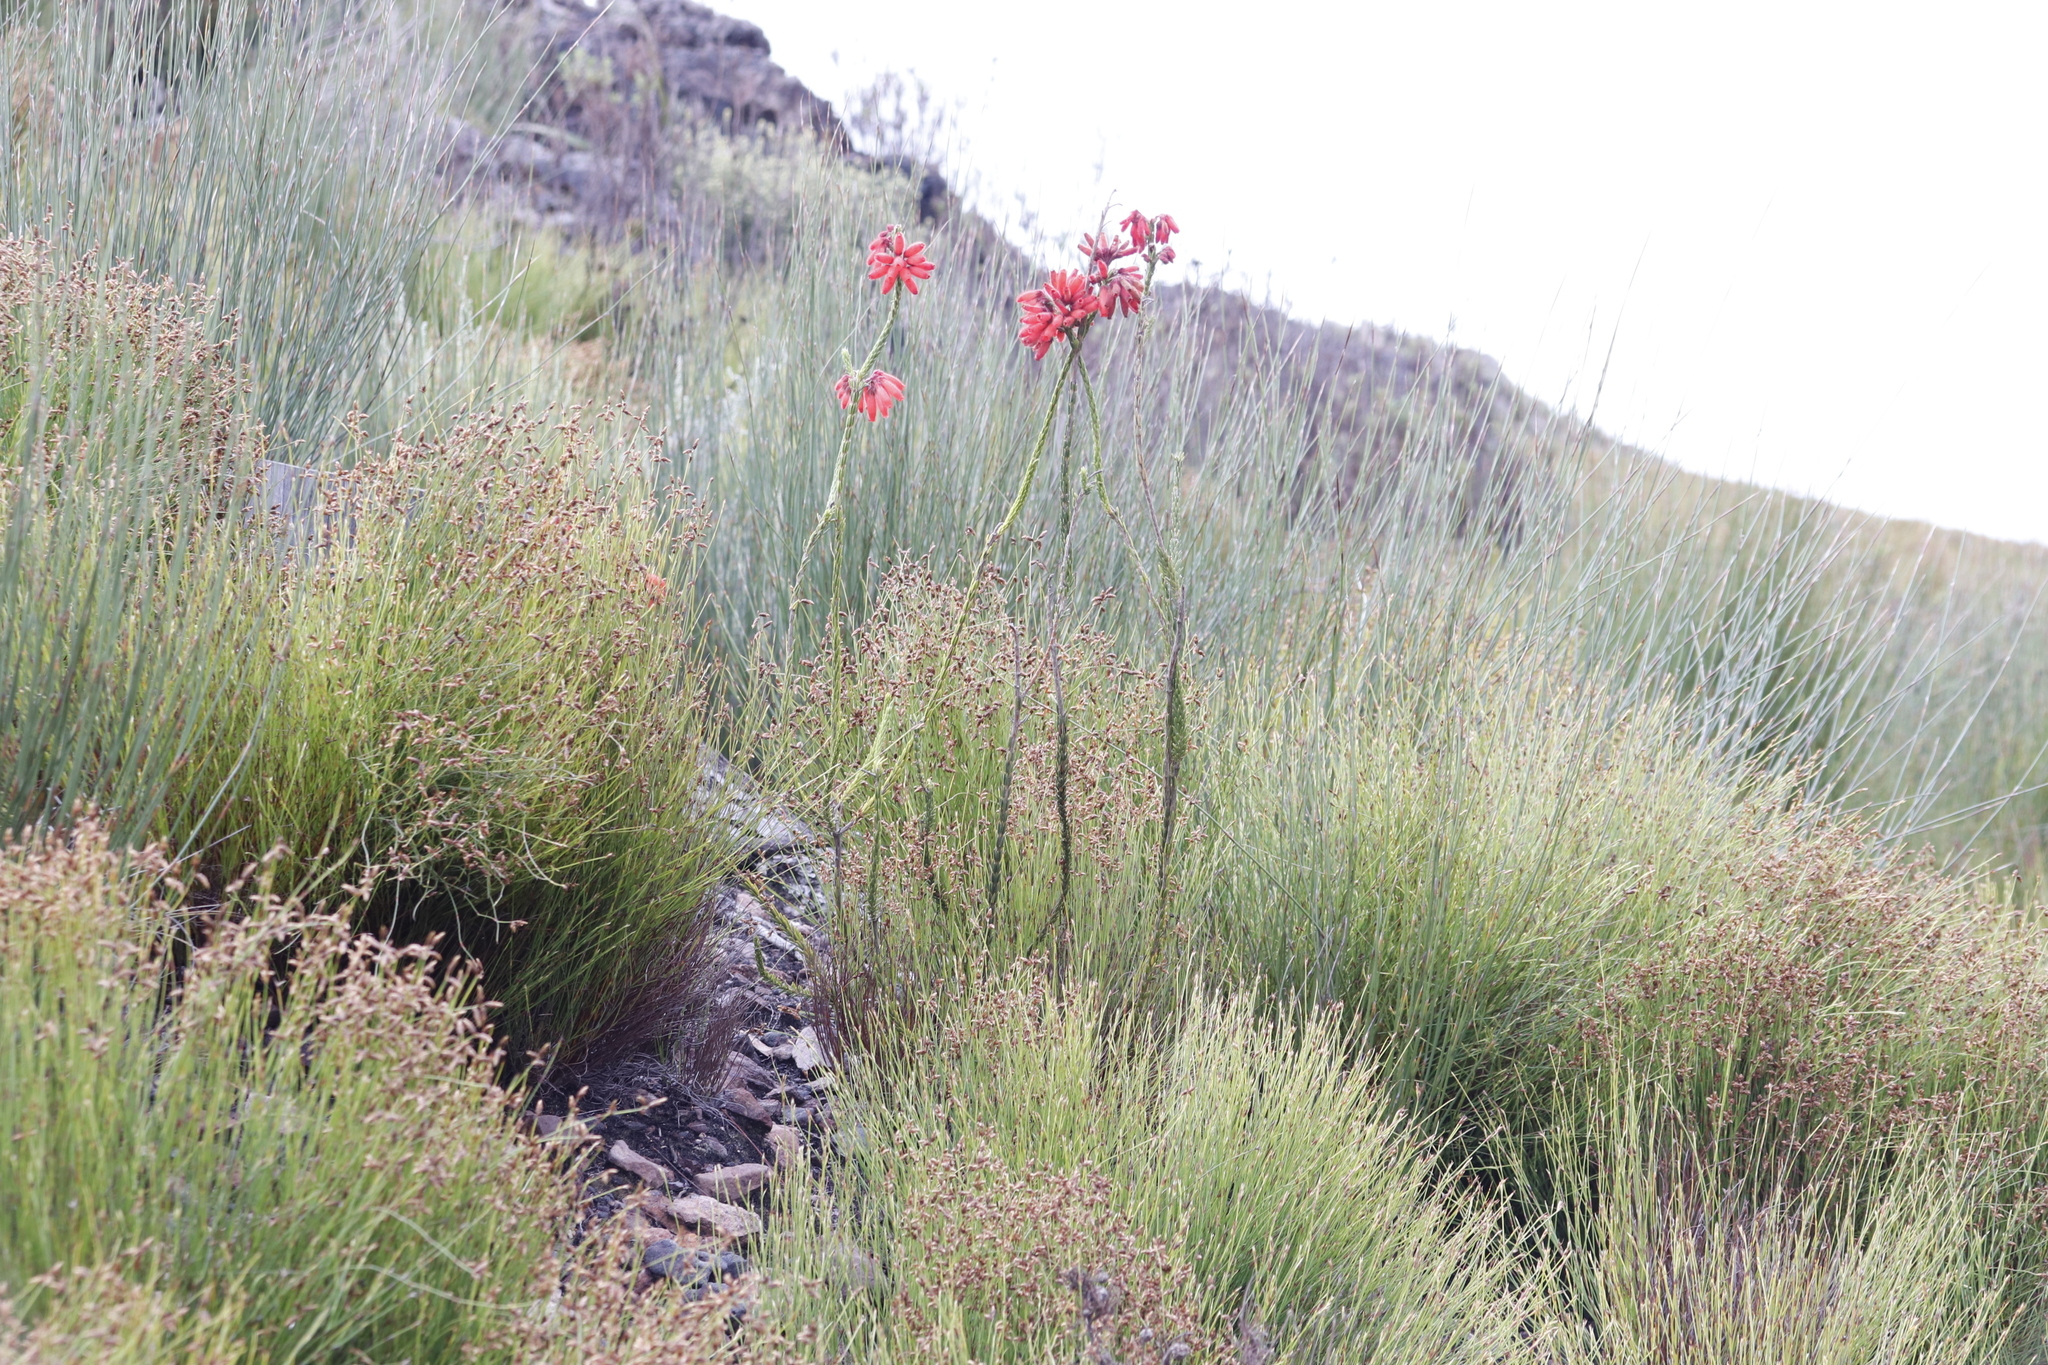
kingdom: Plantae
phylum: Tracheophyta
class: Magnoliopsida
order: Ericales
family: Ericaceae
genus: Erica
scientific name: Erica cerinthoides
